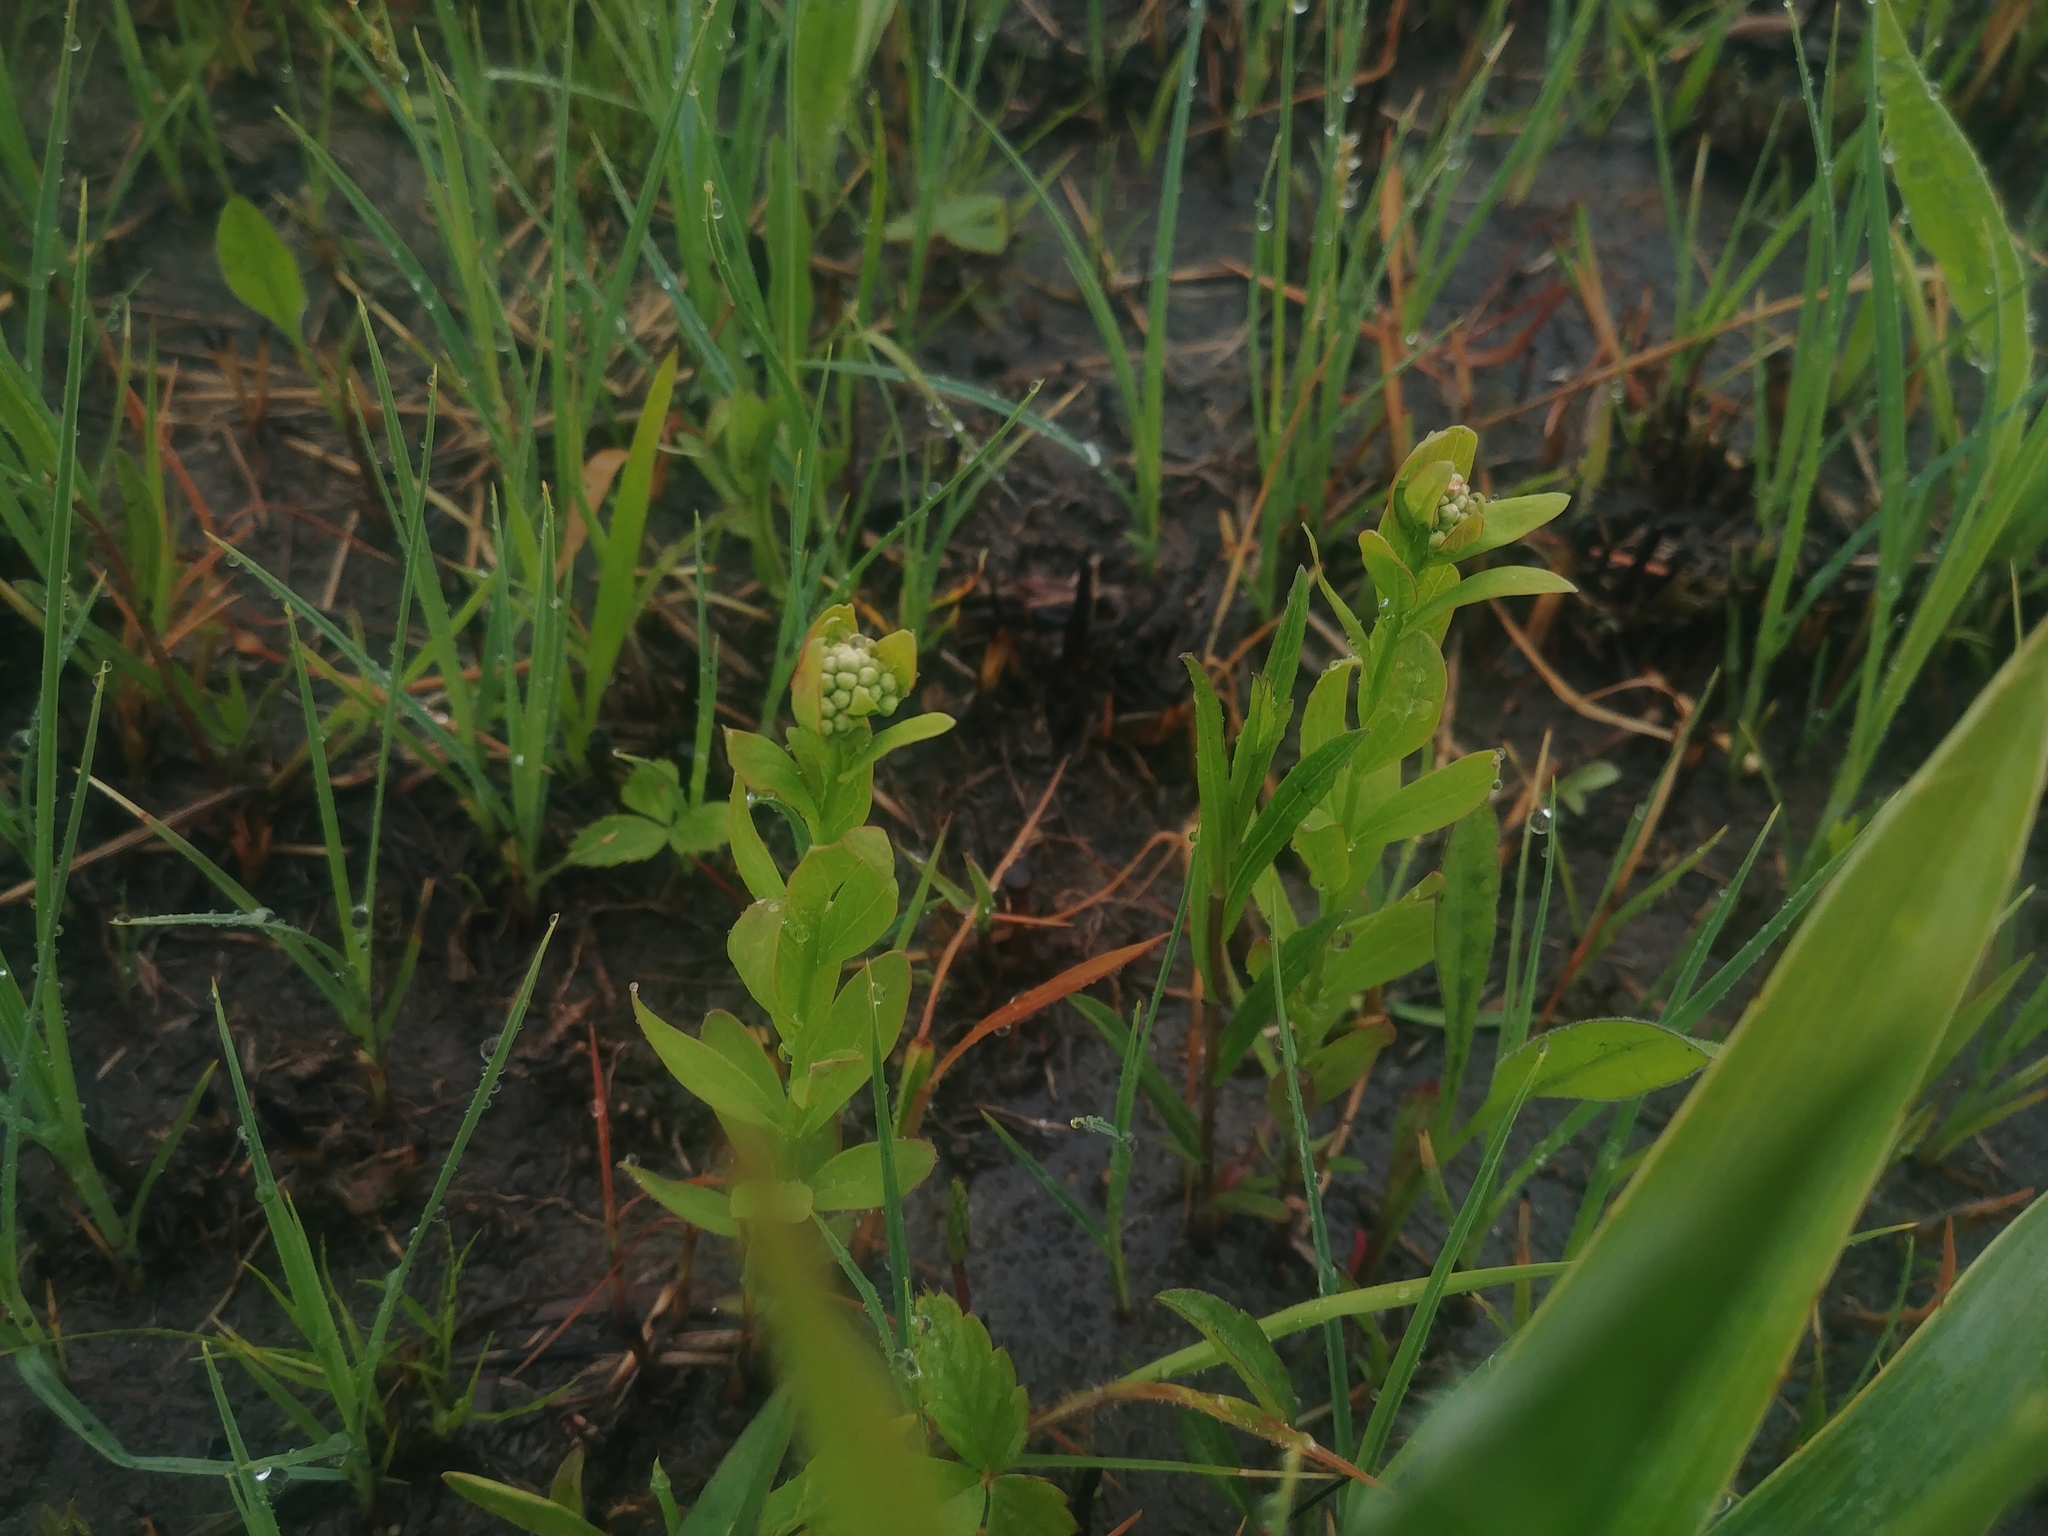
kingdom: Plantae
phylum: Tracheophyta
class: Magnoliopsida
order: Santalales
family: Comandraceae
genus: Comandra
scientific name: Comandra umbellata
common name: Bastard toadflax
